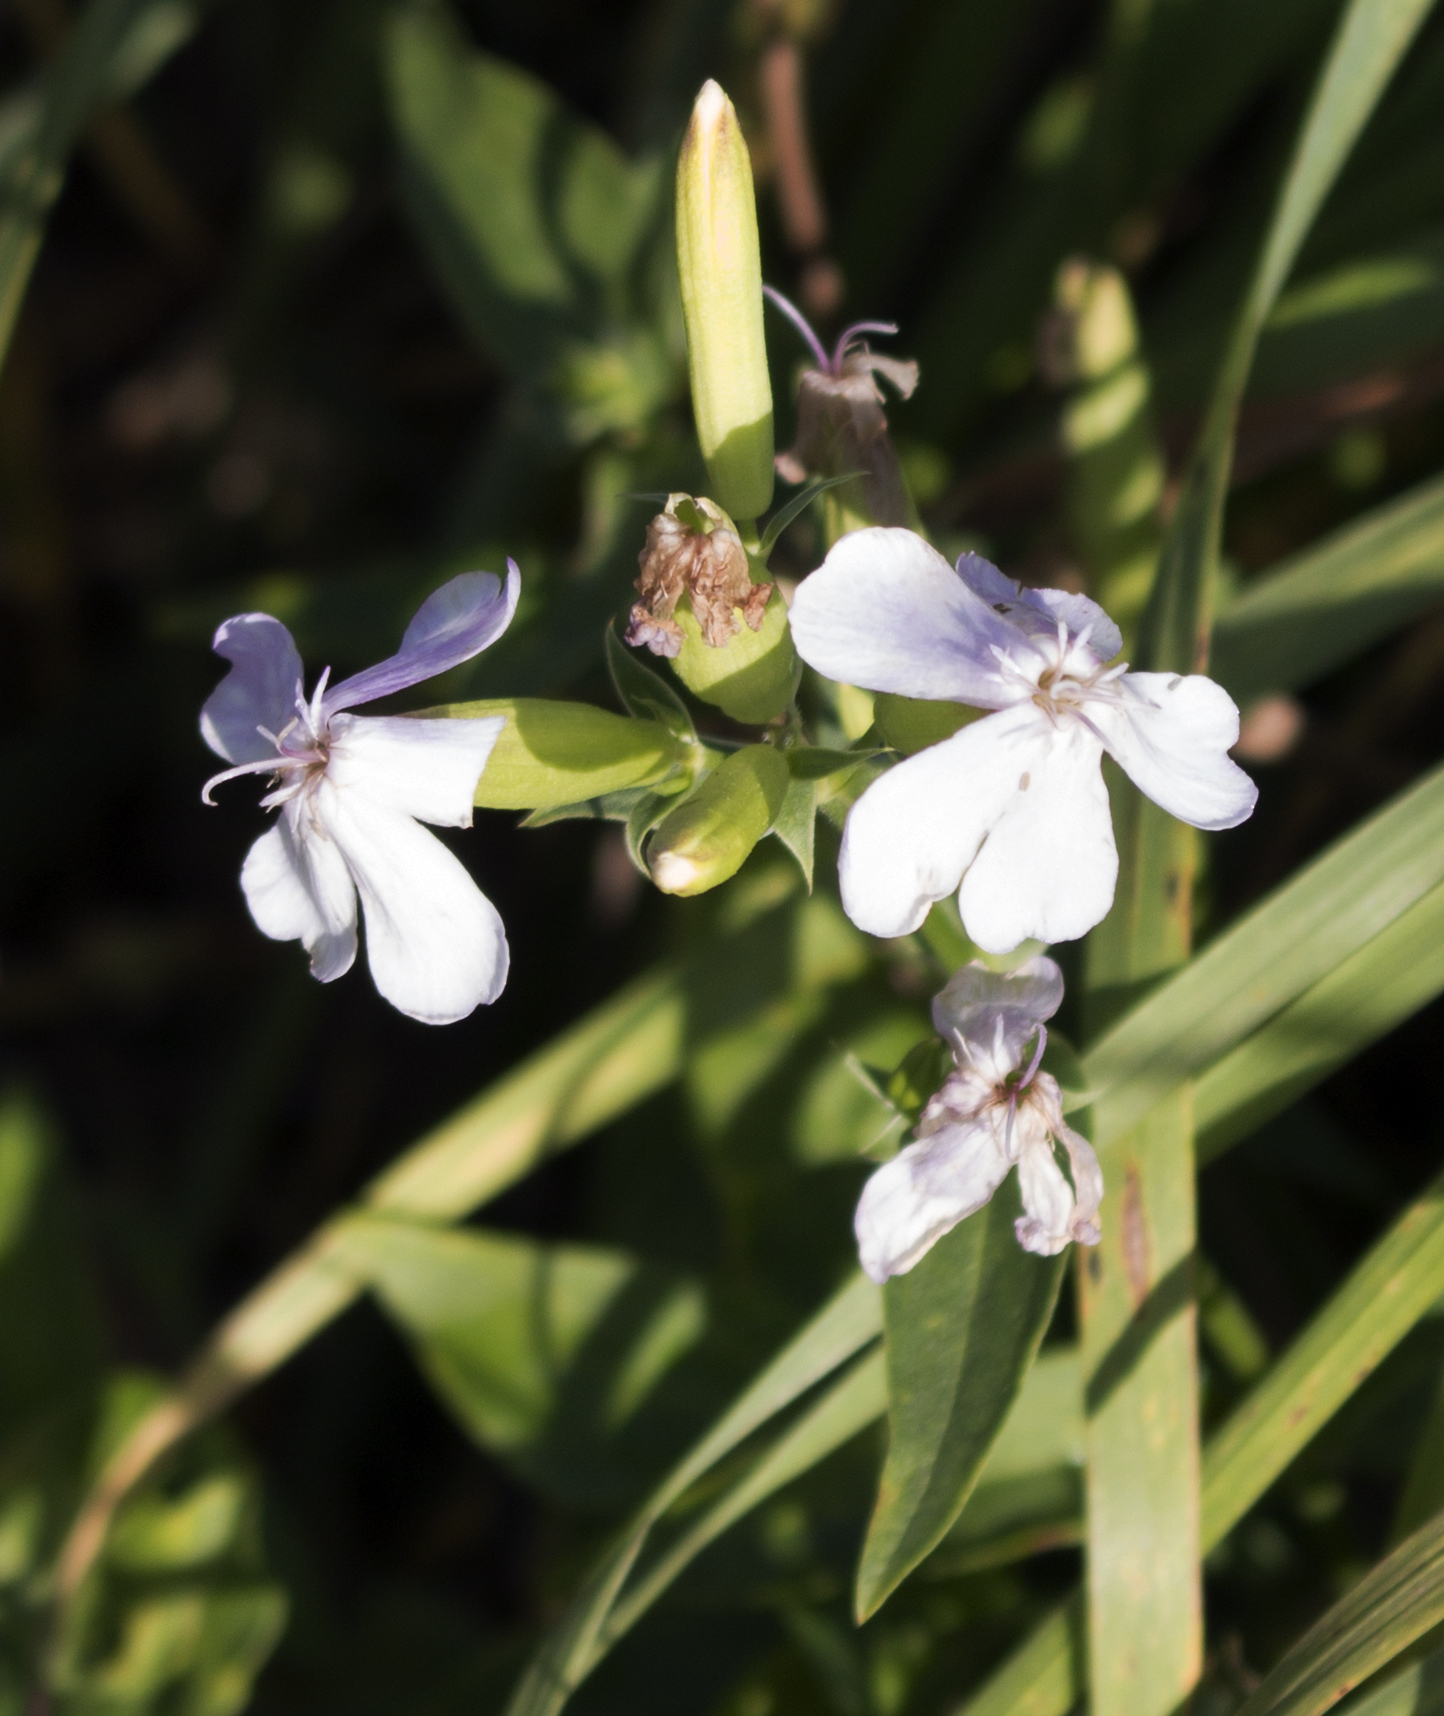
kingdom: Plantae
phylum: Tracheophyta
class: Magnoliopsida
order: Caryophyllales
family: Caryophyllaceae
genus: Saponaria
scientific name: Saponaria officinalis
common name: Soapwort
